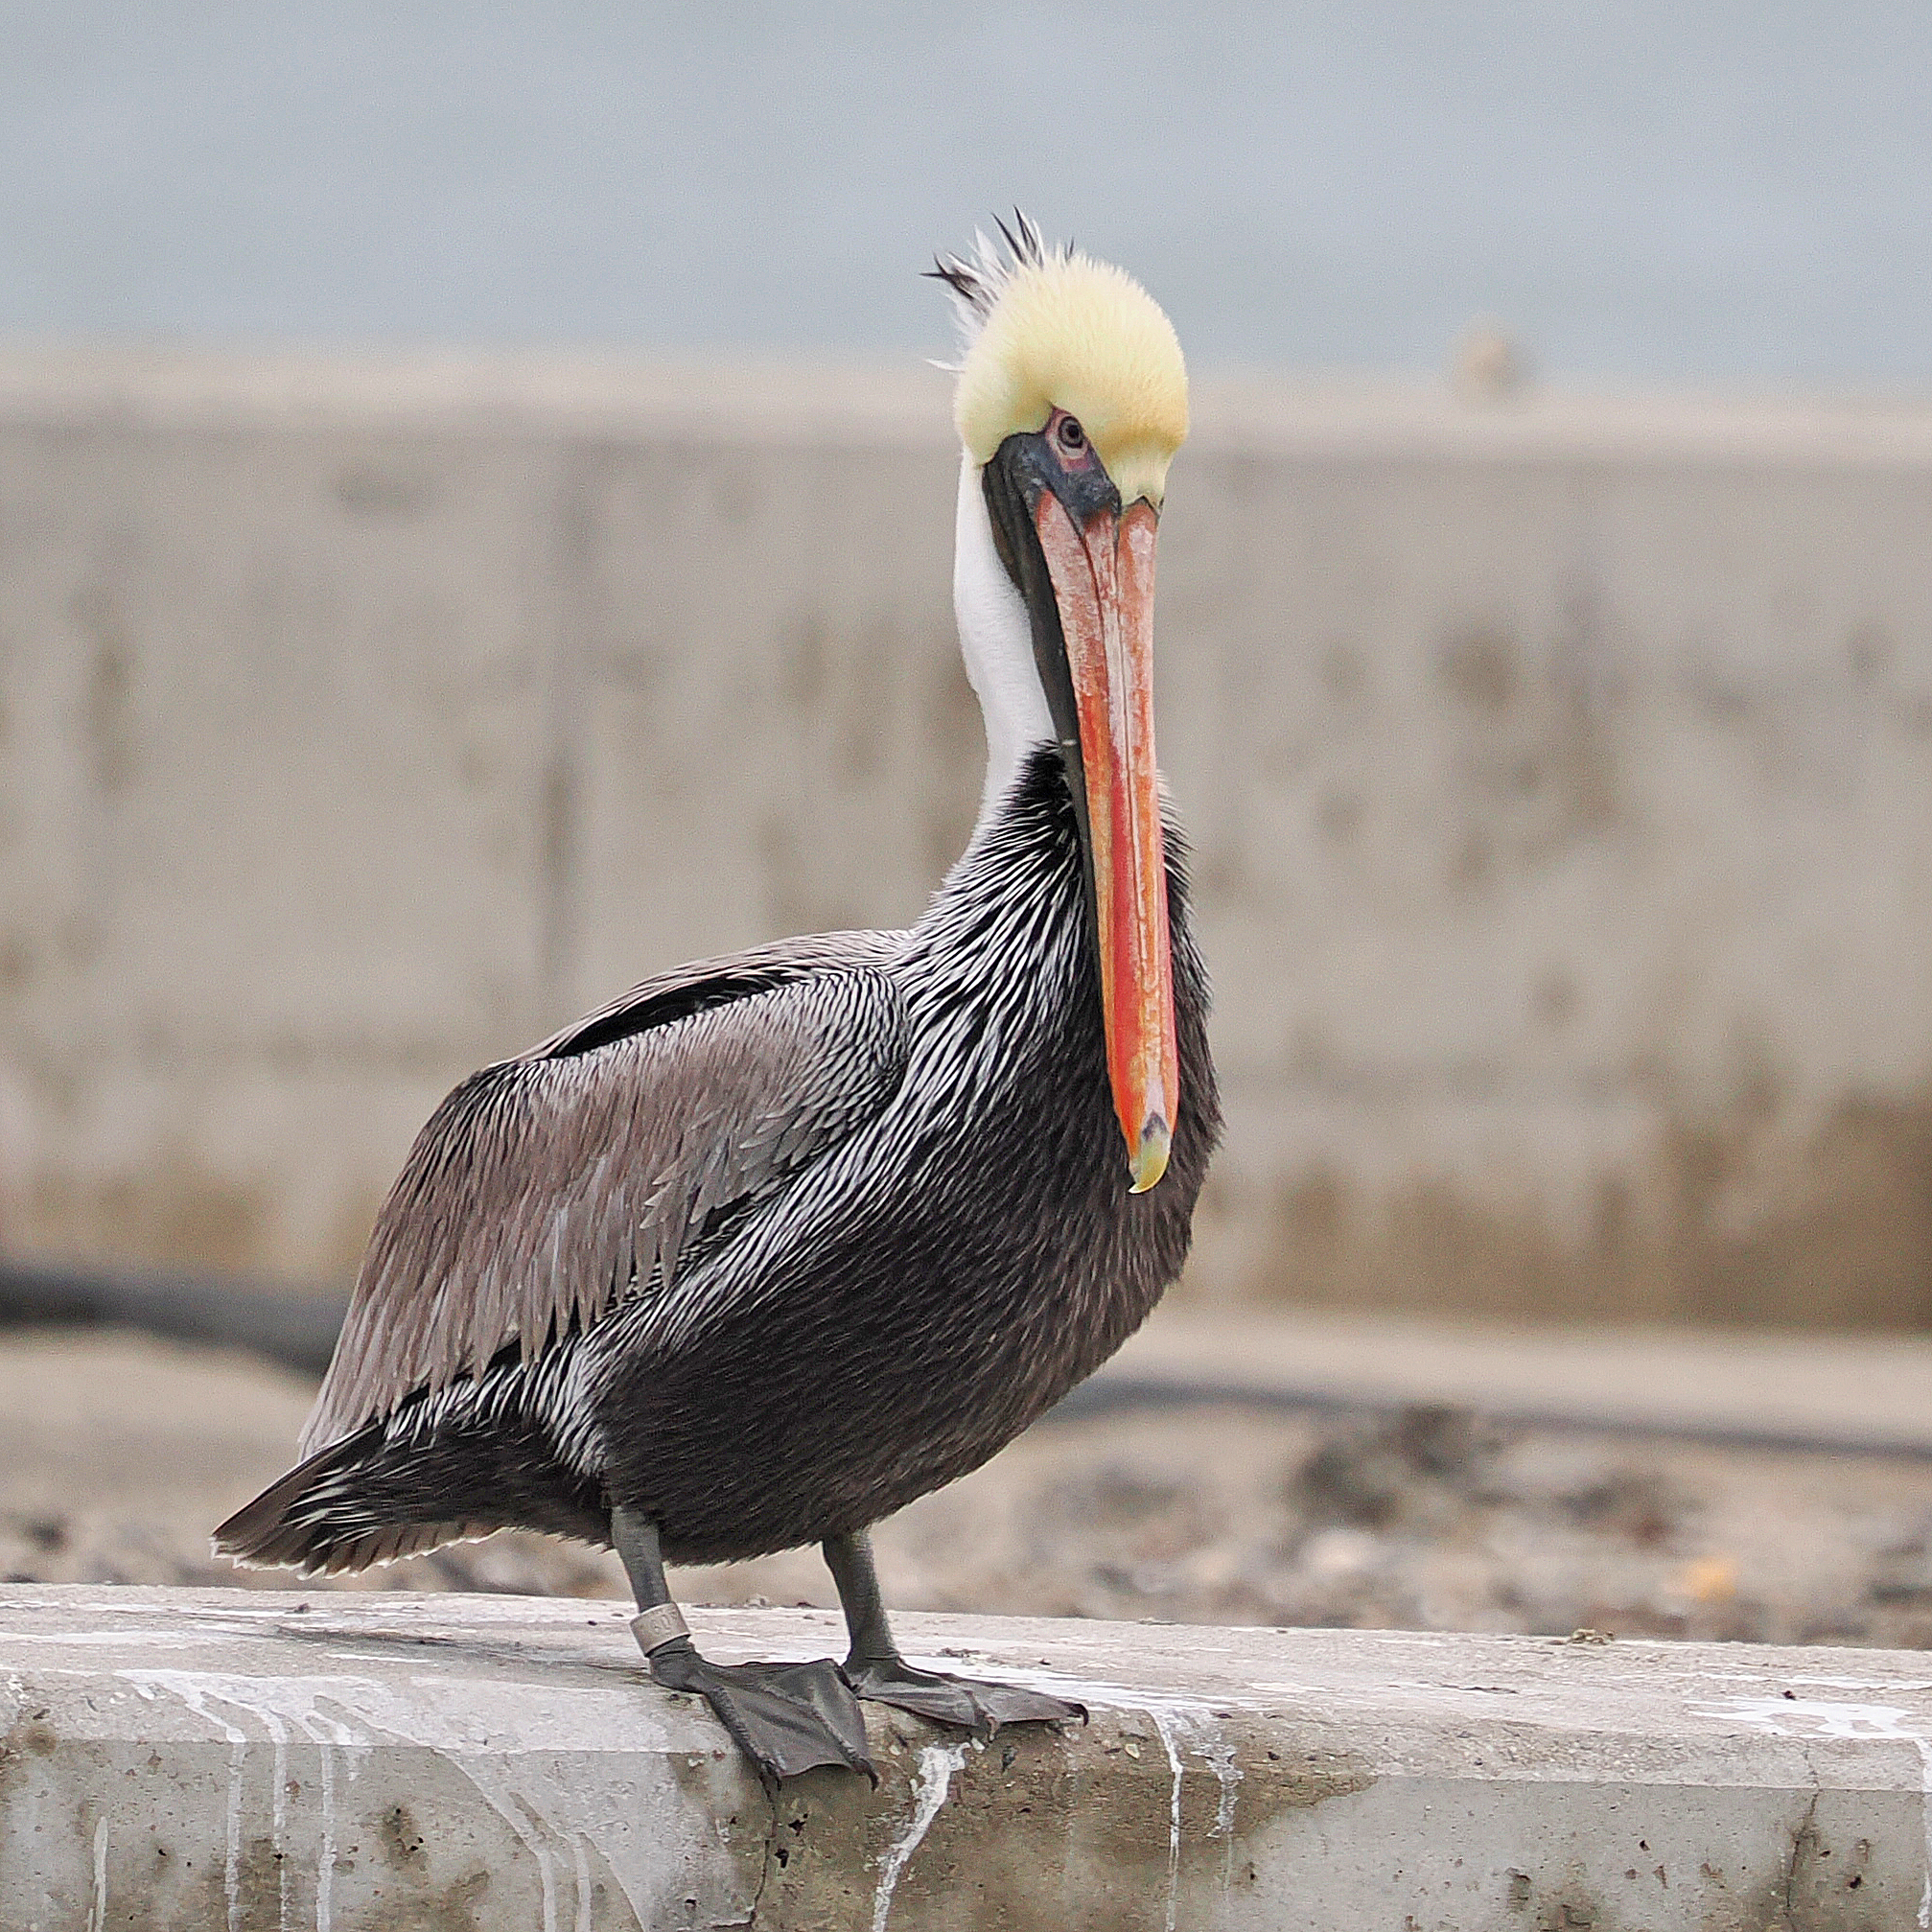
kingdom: Animalia
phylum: Chordata
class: Aves
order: Pelecaniformes
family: Pelecanidae
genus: Pelecanus
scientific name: Pelecanus occidentalis
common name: Brown pelican
